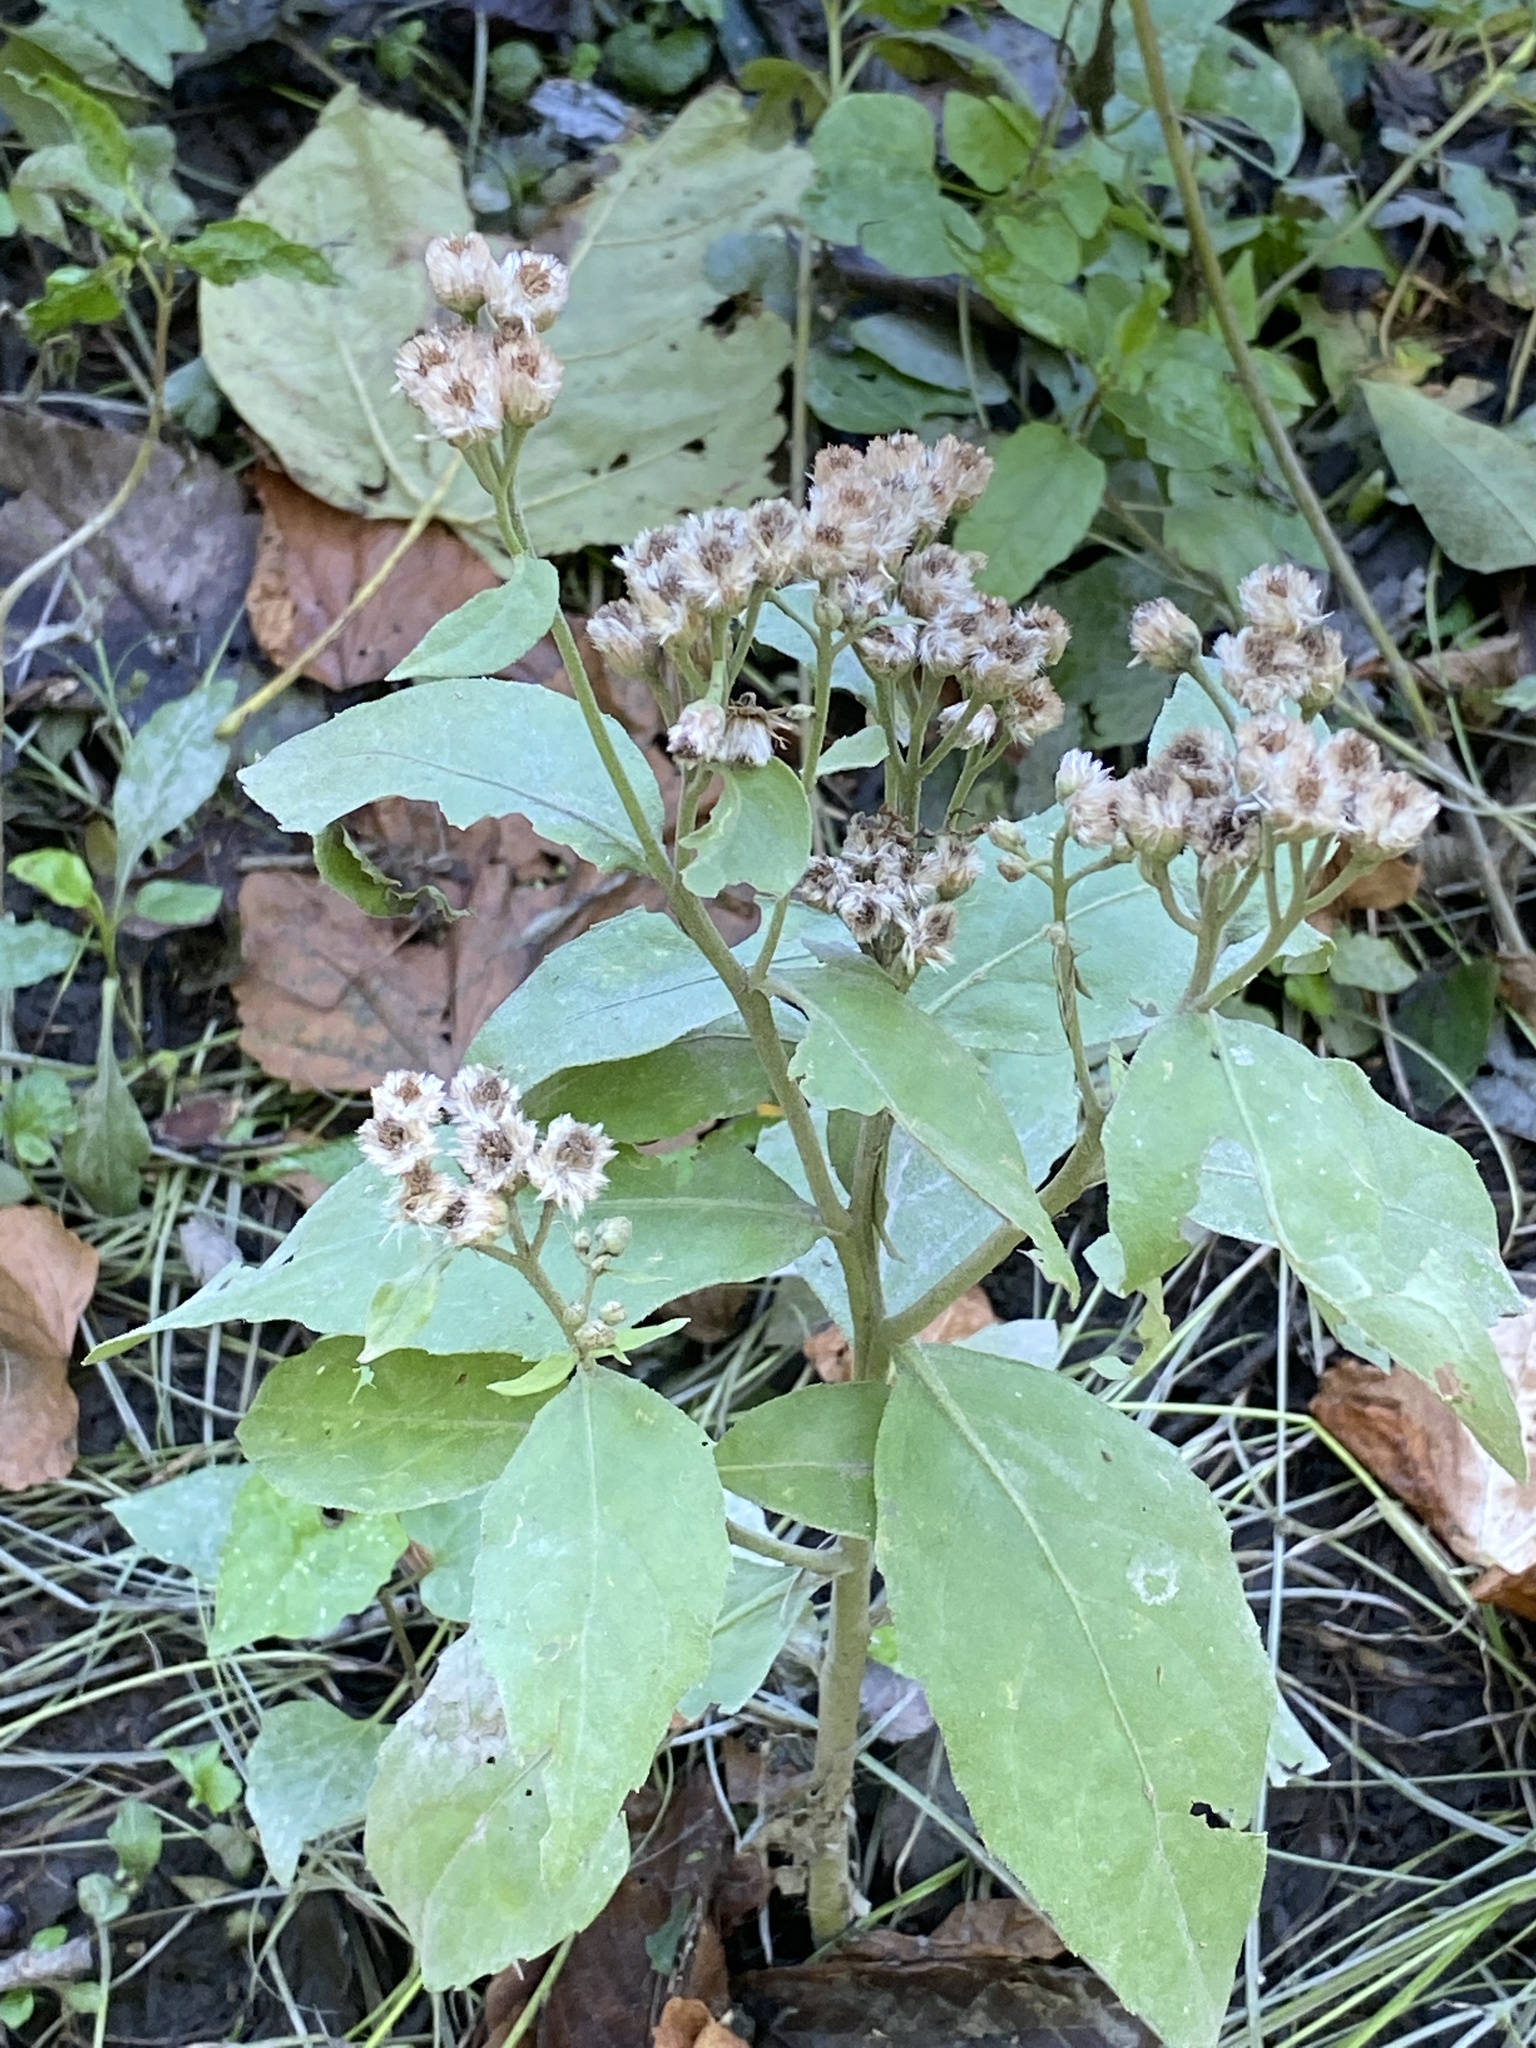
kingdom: Plantae
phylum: Tracheophyta
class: Magnoliopsida
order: Asterales
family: Asteraceae
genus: Pluchea
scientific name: Pluchea odorata
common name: Saltmarsh fleabane
